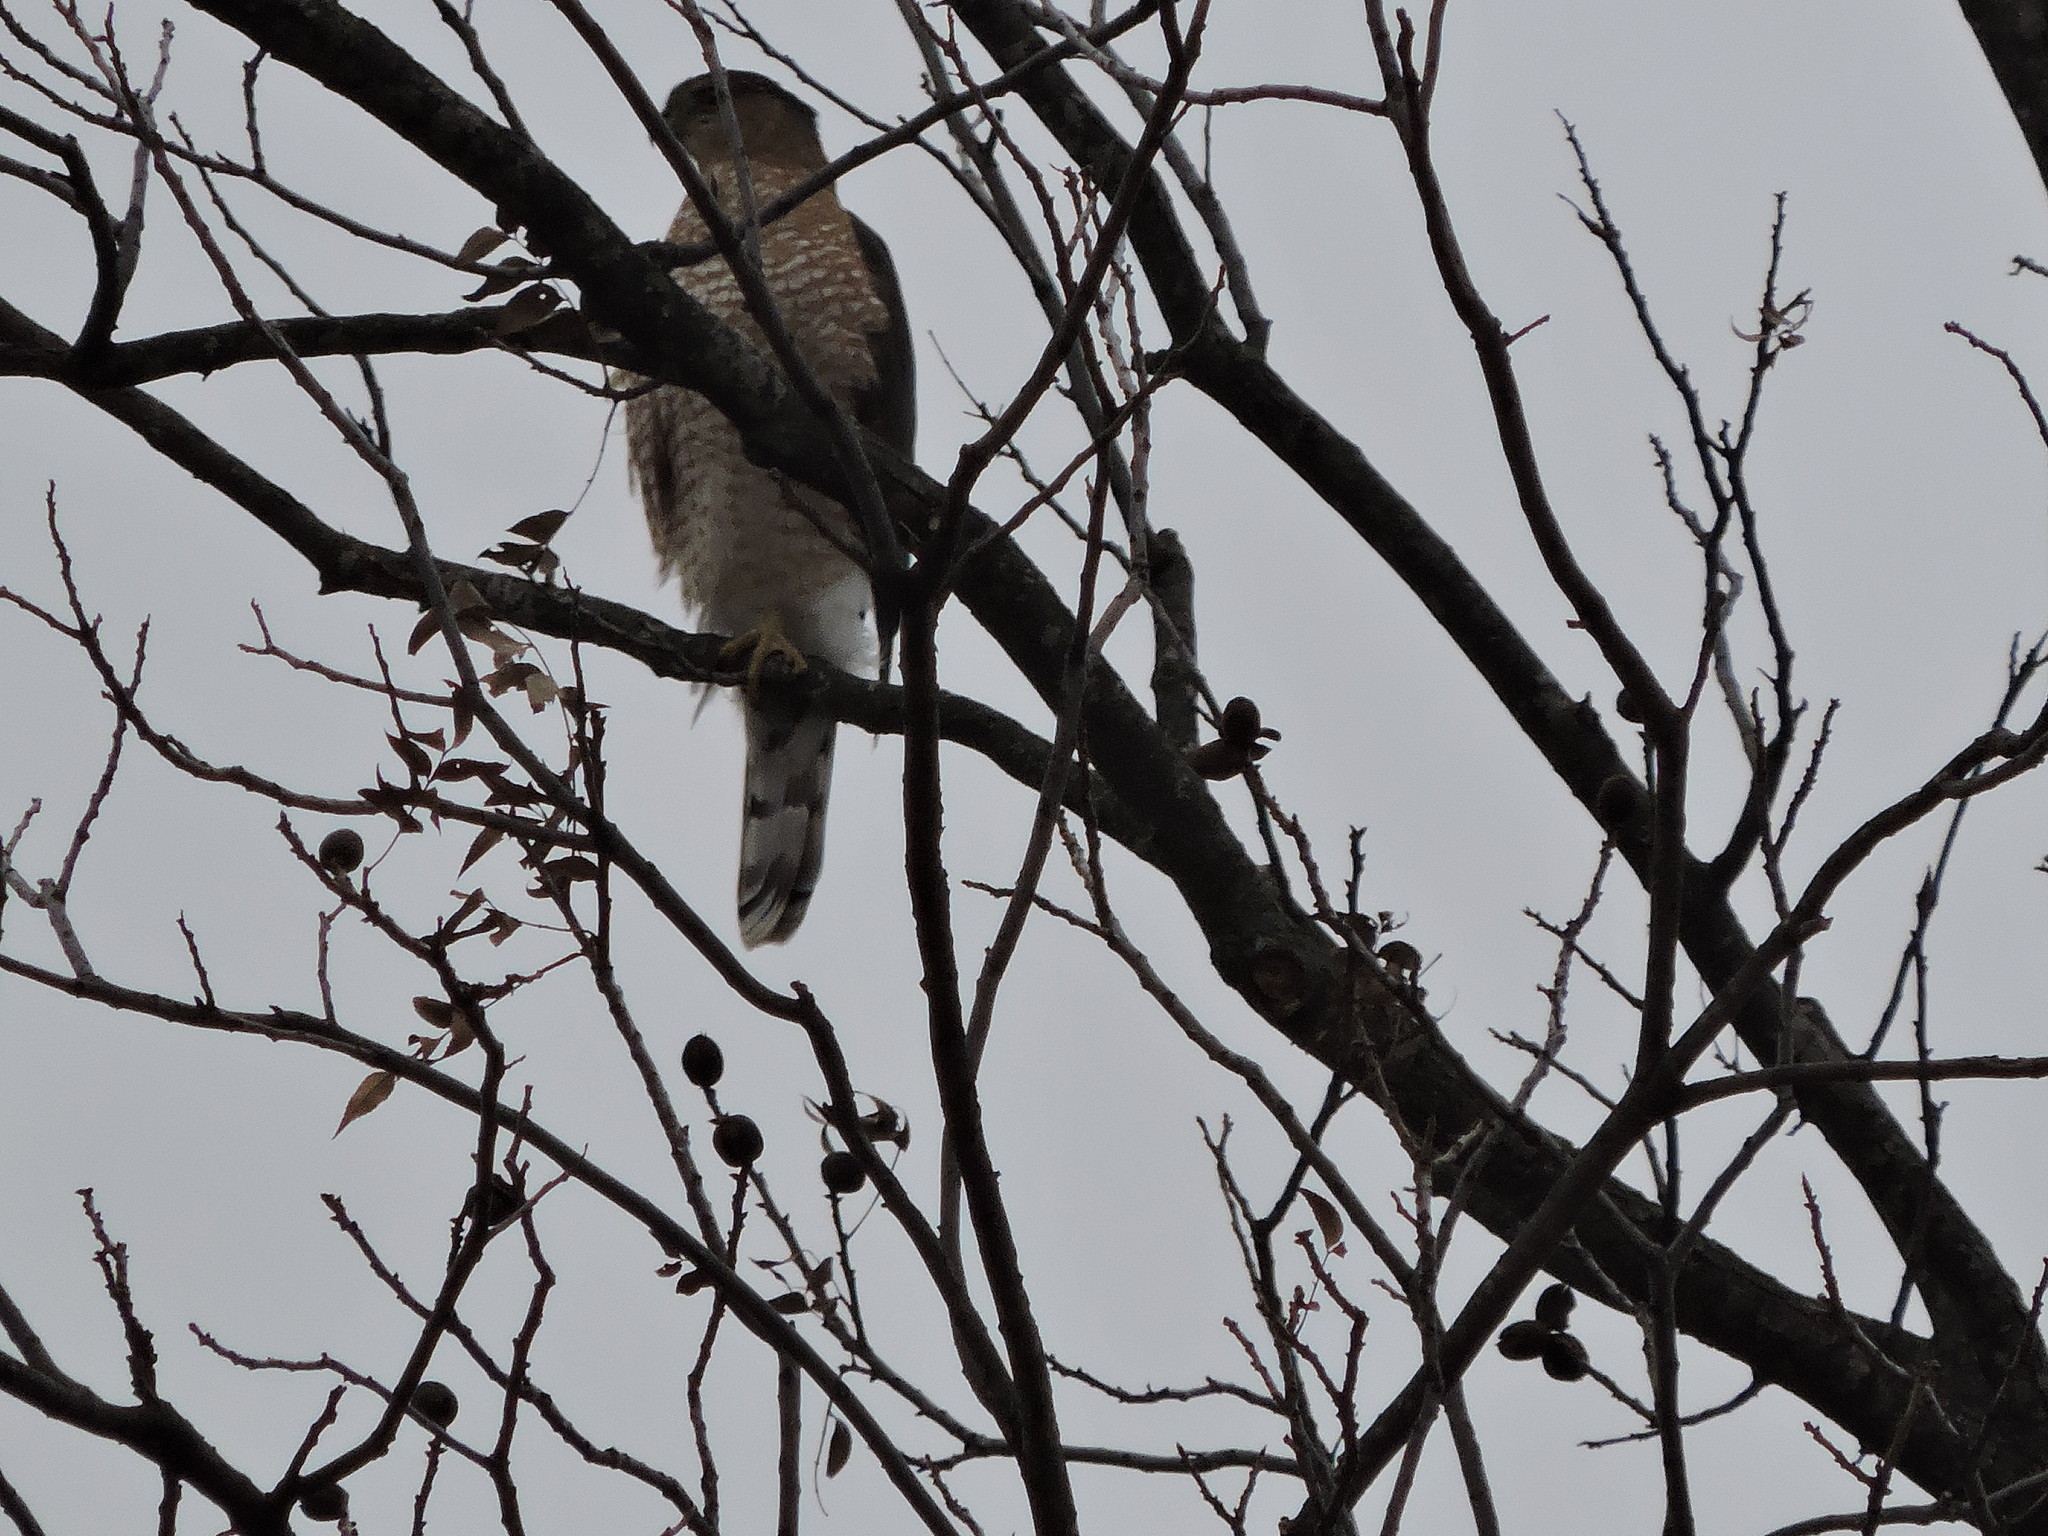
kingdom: Animalia
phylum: Chordata
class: Aves
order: Accipitriformes
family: Accipitridae
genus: Accipiter
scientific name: Accipiter cooperii
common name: Cooper's hawk
